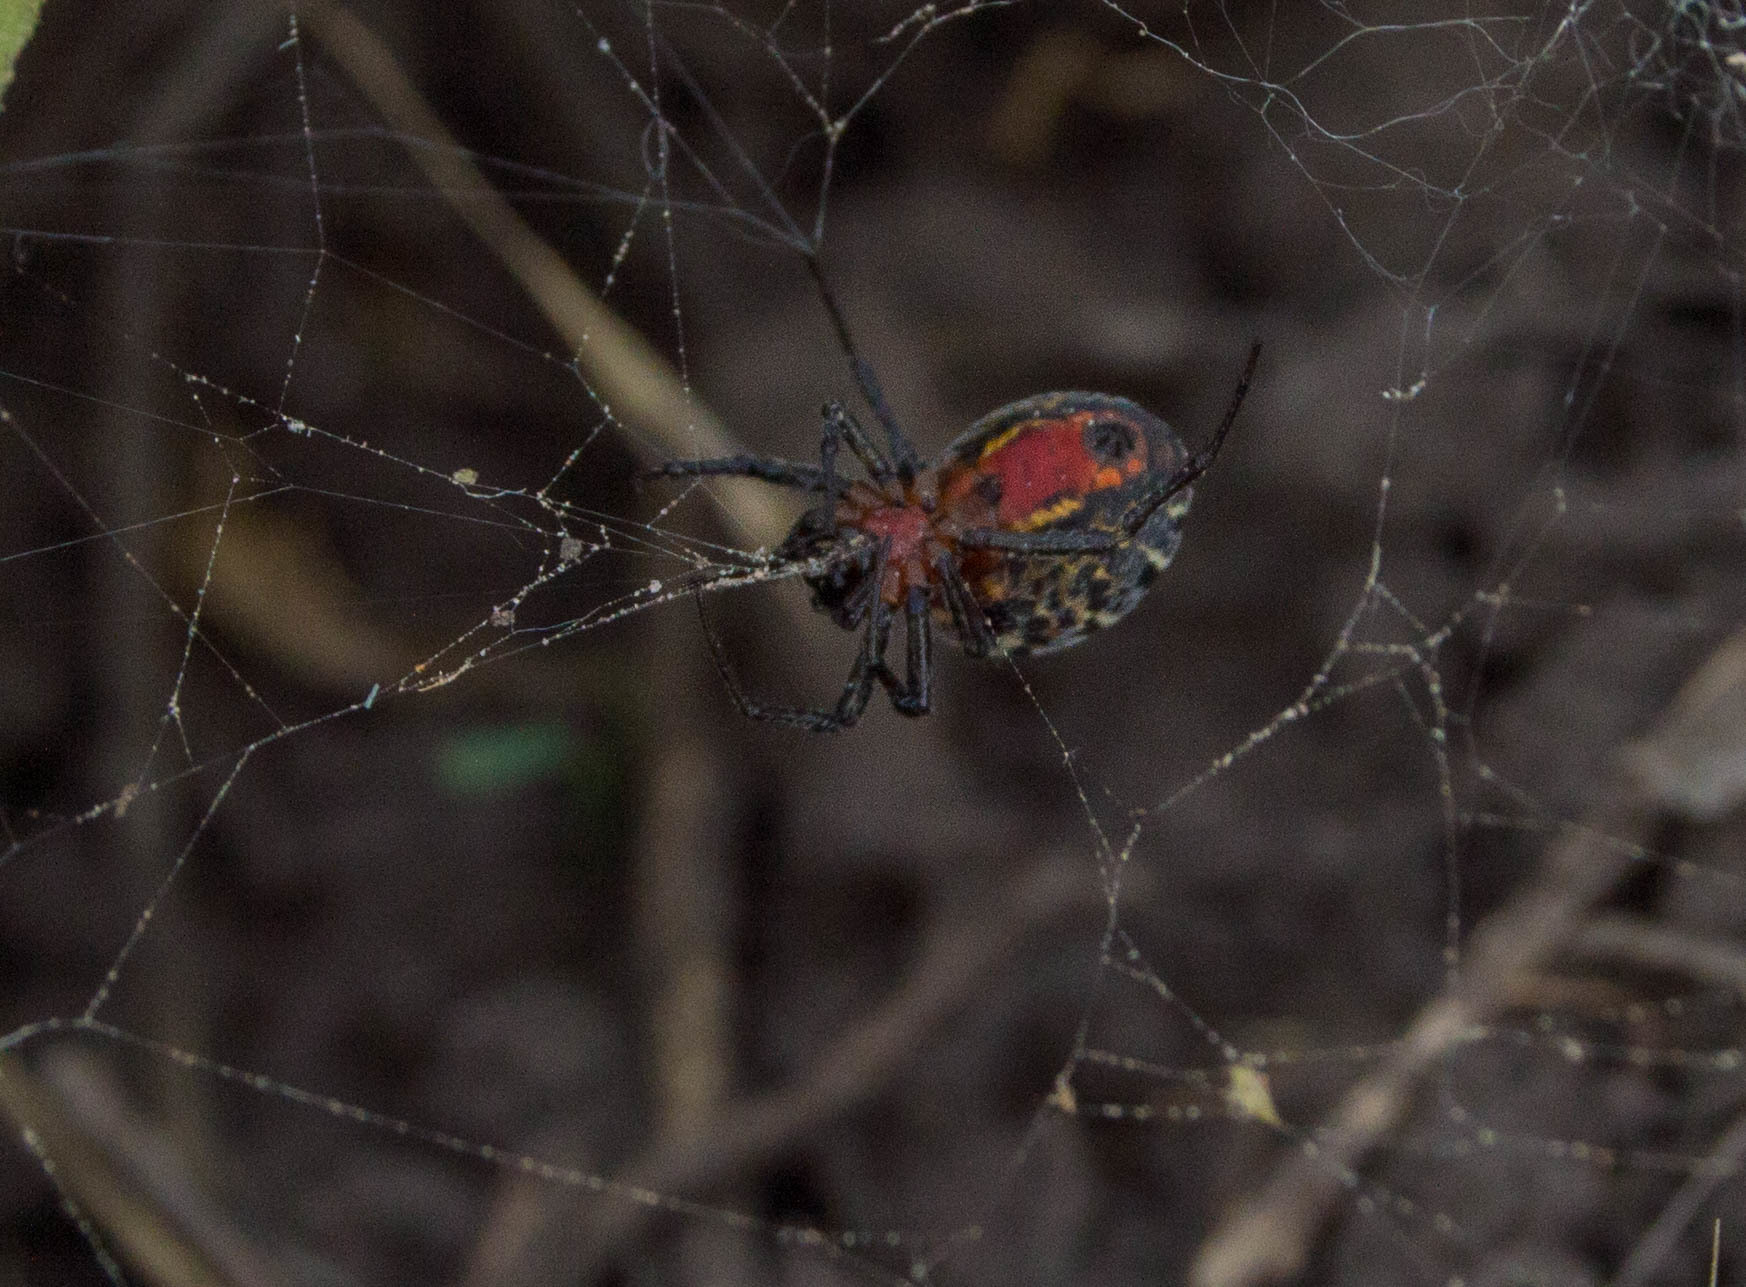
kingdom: Animalia
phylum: Arthropoda
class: Arachnida
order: Araneae
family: Araneidae
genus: Alpaida
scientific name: Alpaida versicolor
